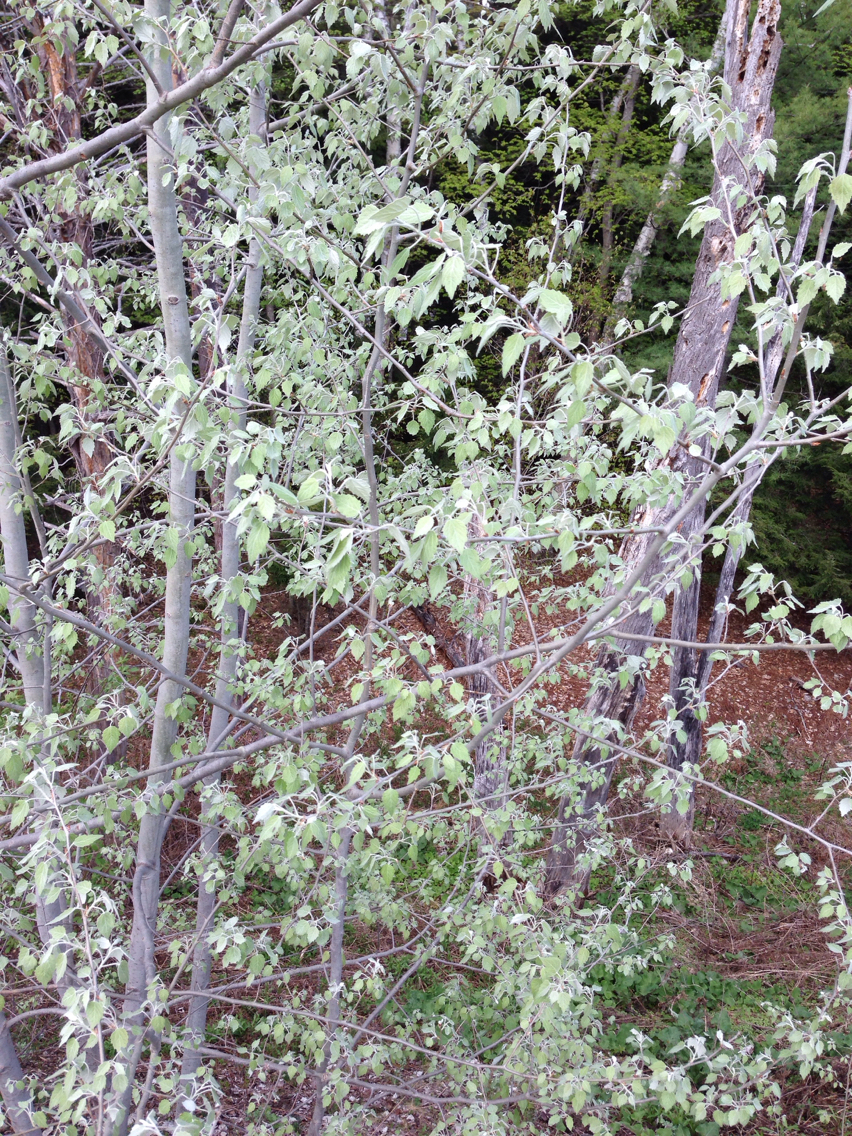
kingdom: Plantae
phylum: Tracheophyta
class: Magnoliopsida
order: Malpighiales
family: Salicaceae
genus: Populus
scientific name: Populus alba
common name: White poplar
